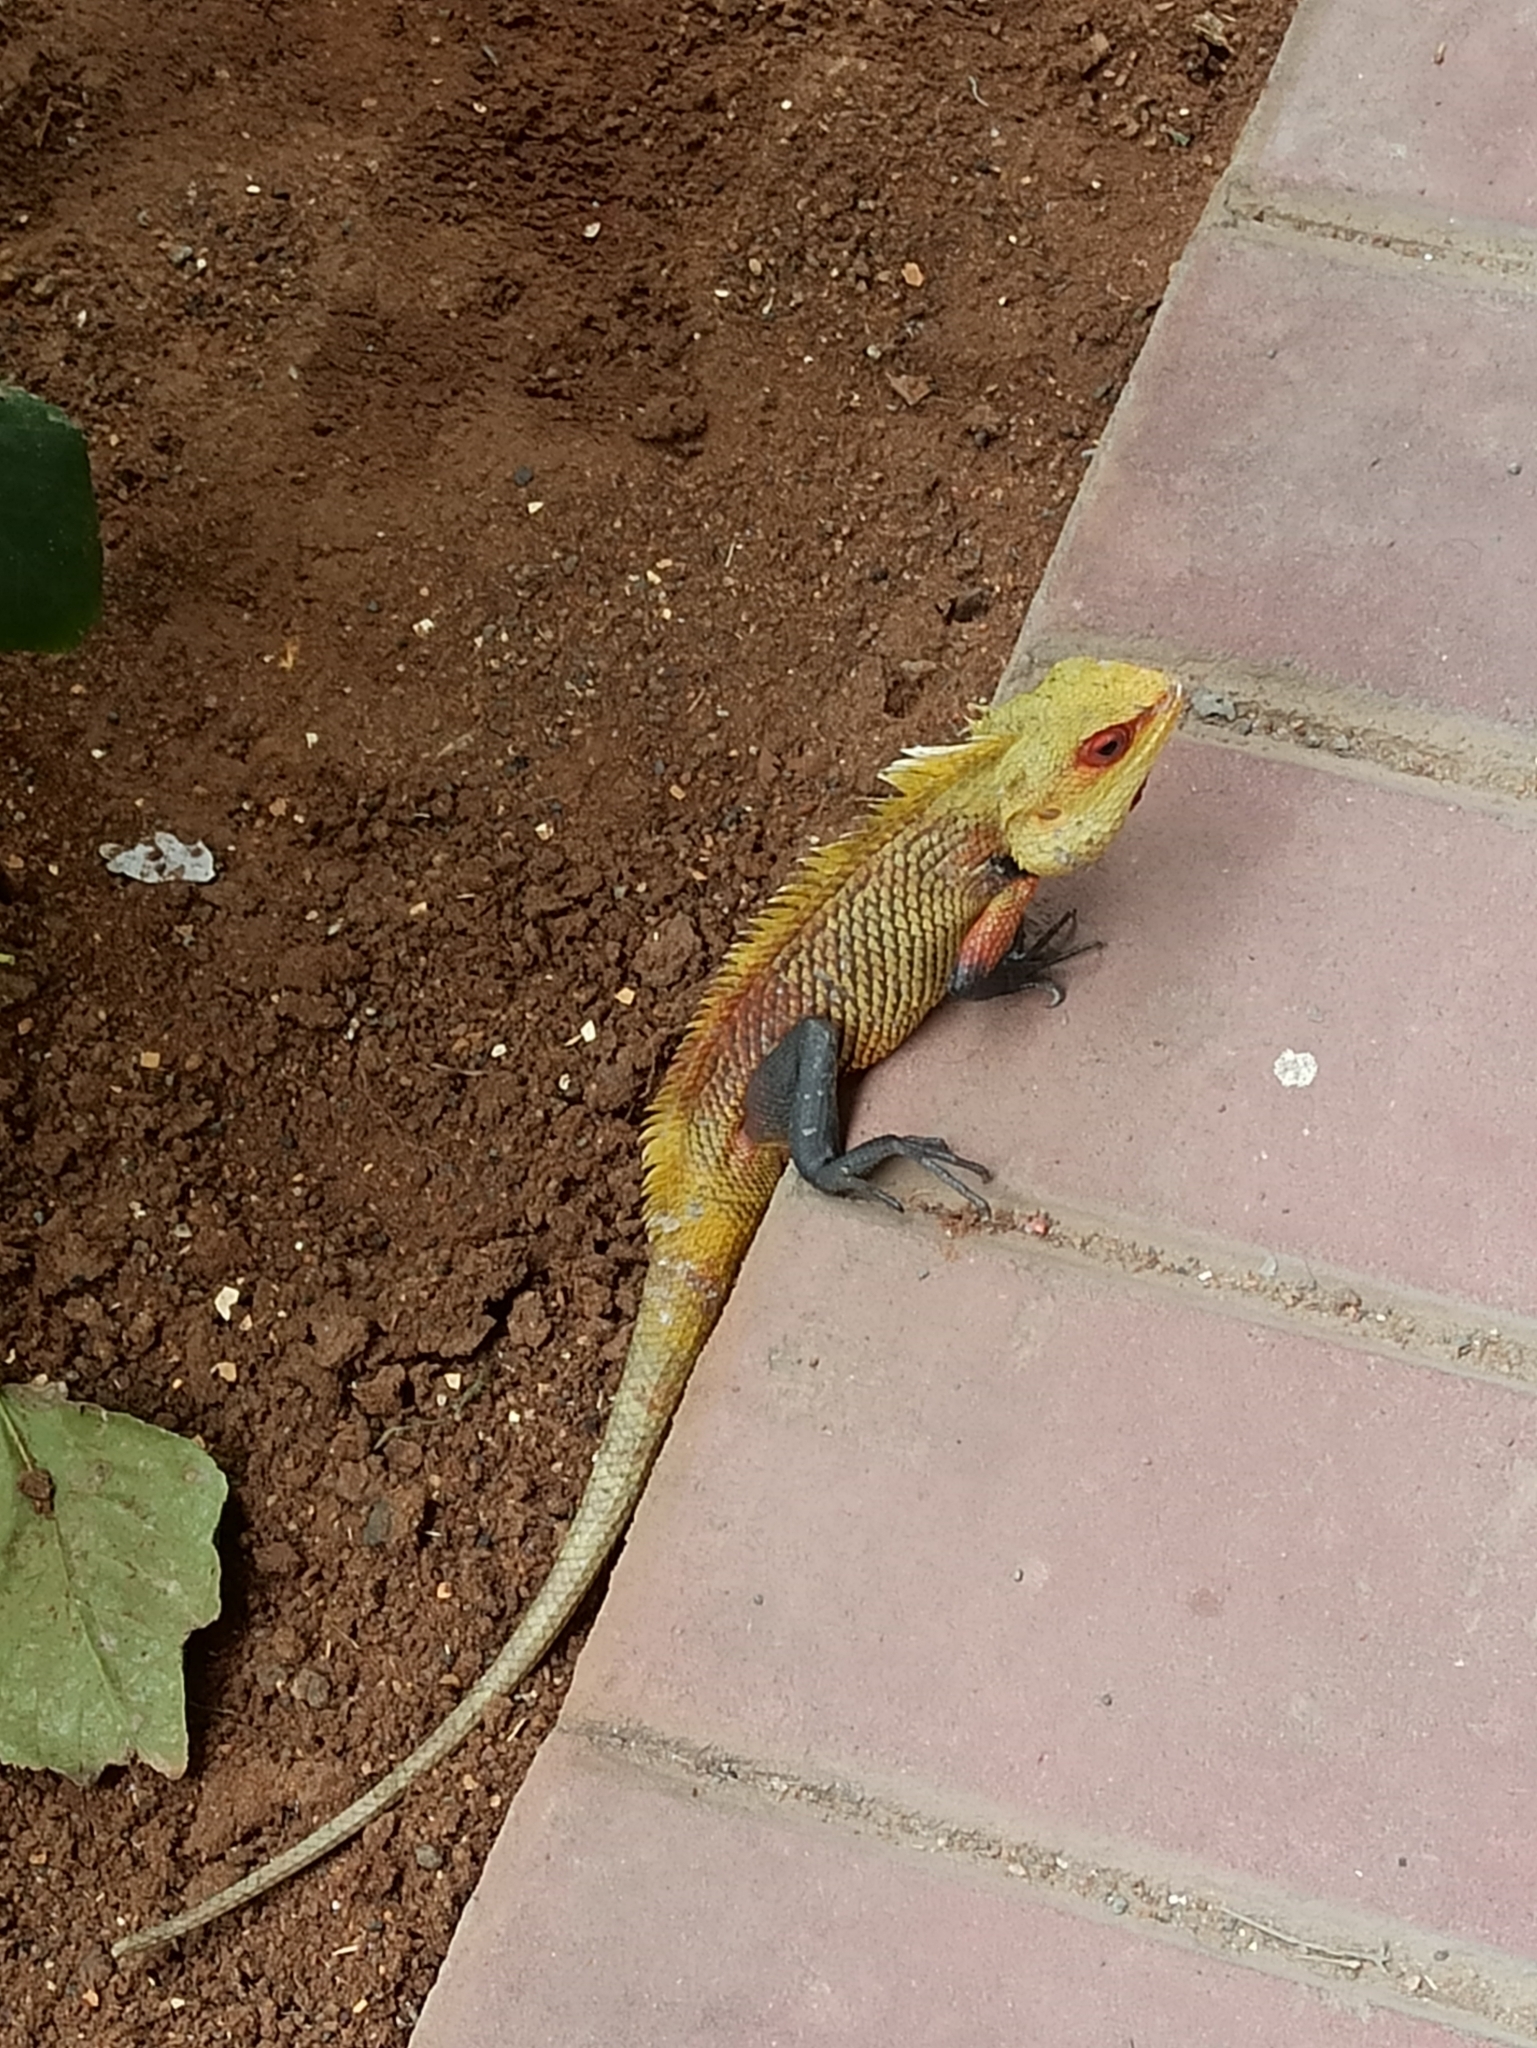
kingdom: Animalia
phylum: Chordata
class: Squamata
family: Agamidae
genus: Calotes
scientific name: Calotes versicolor
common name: Oriental garden lizard
